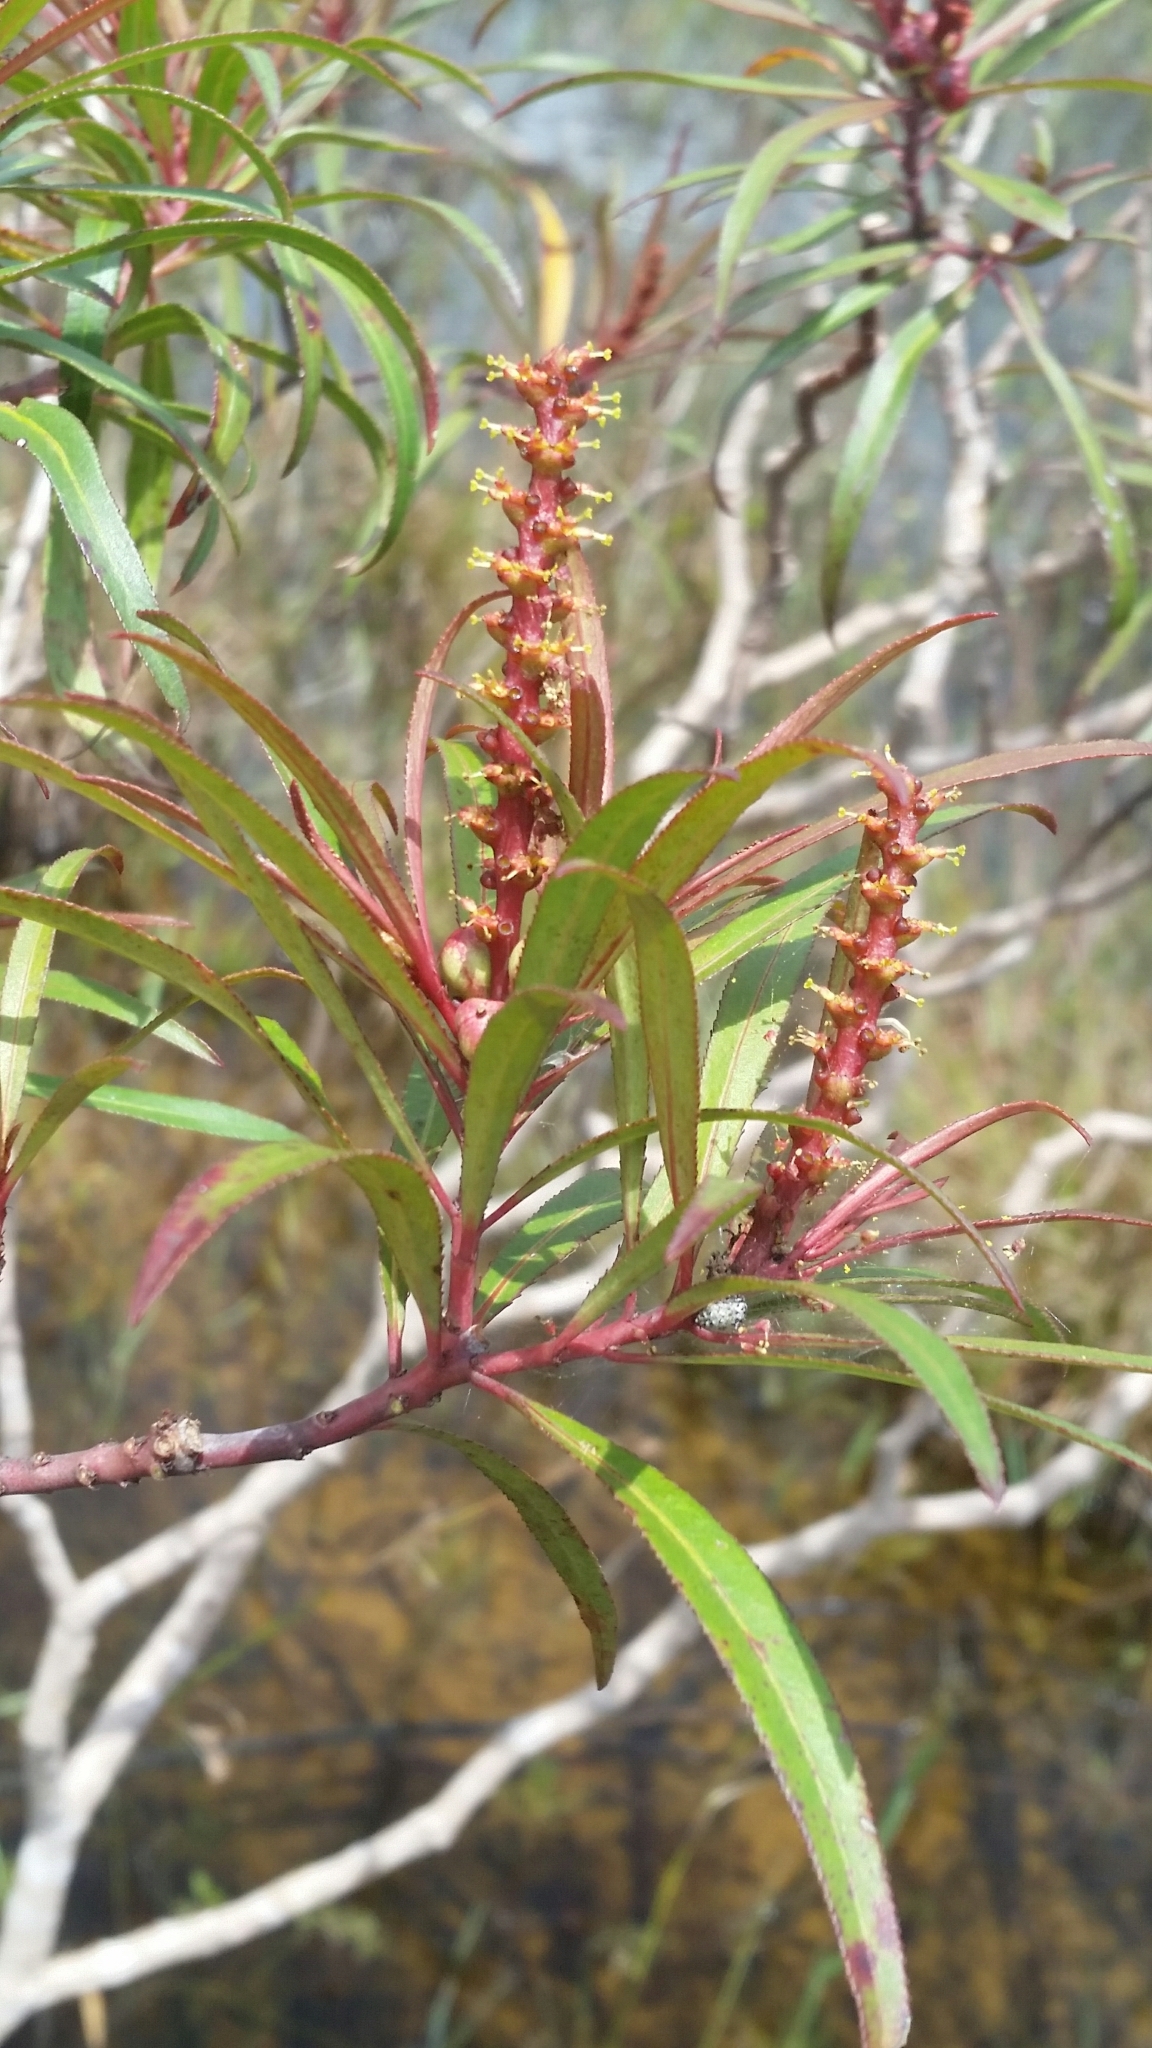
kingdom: Plantae
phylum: Tracheophyta
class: Magnoliopsida
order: Malpighiales
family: Euphorbiaceae
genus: Stillingia
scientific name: Stillingia aquatica
